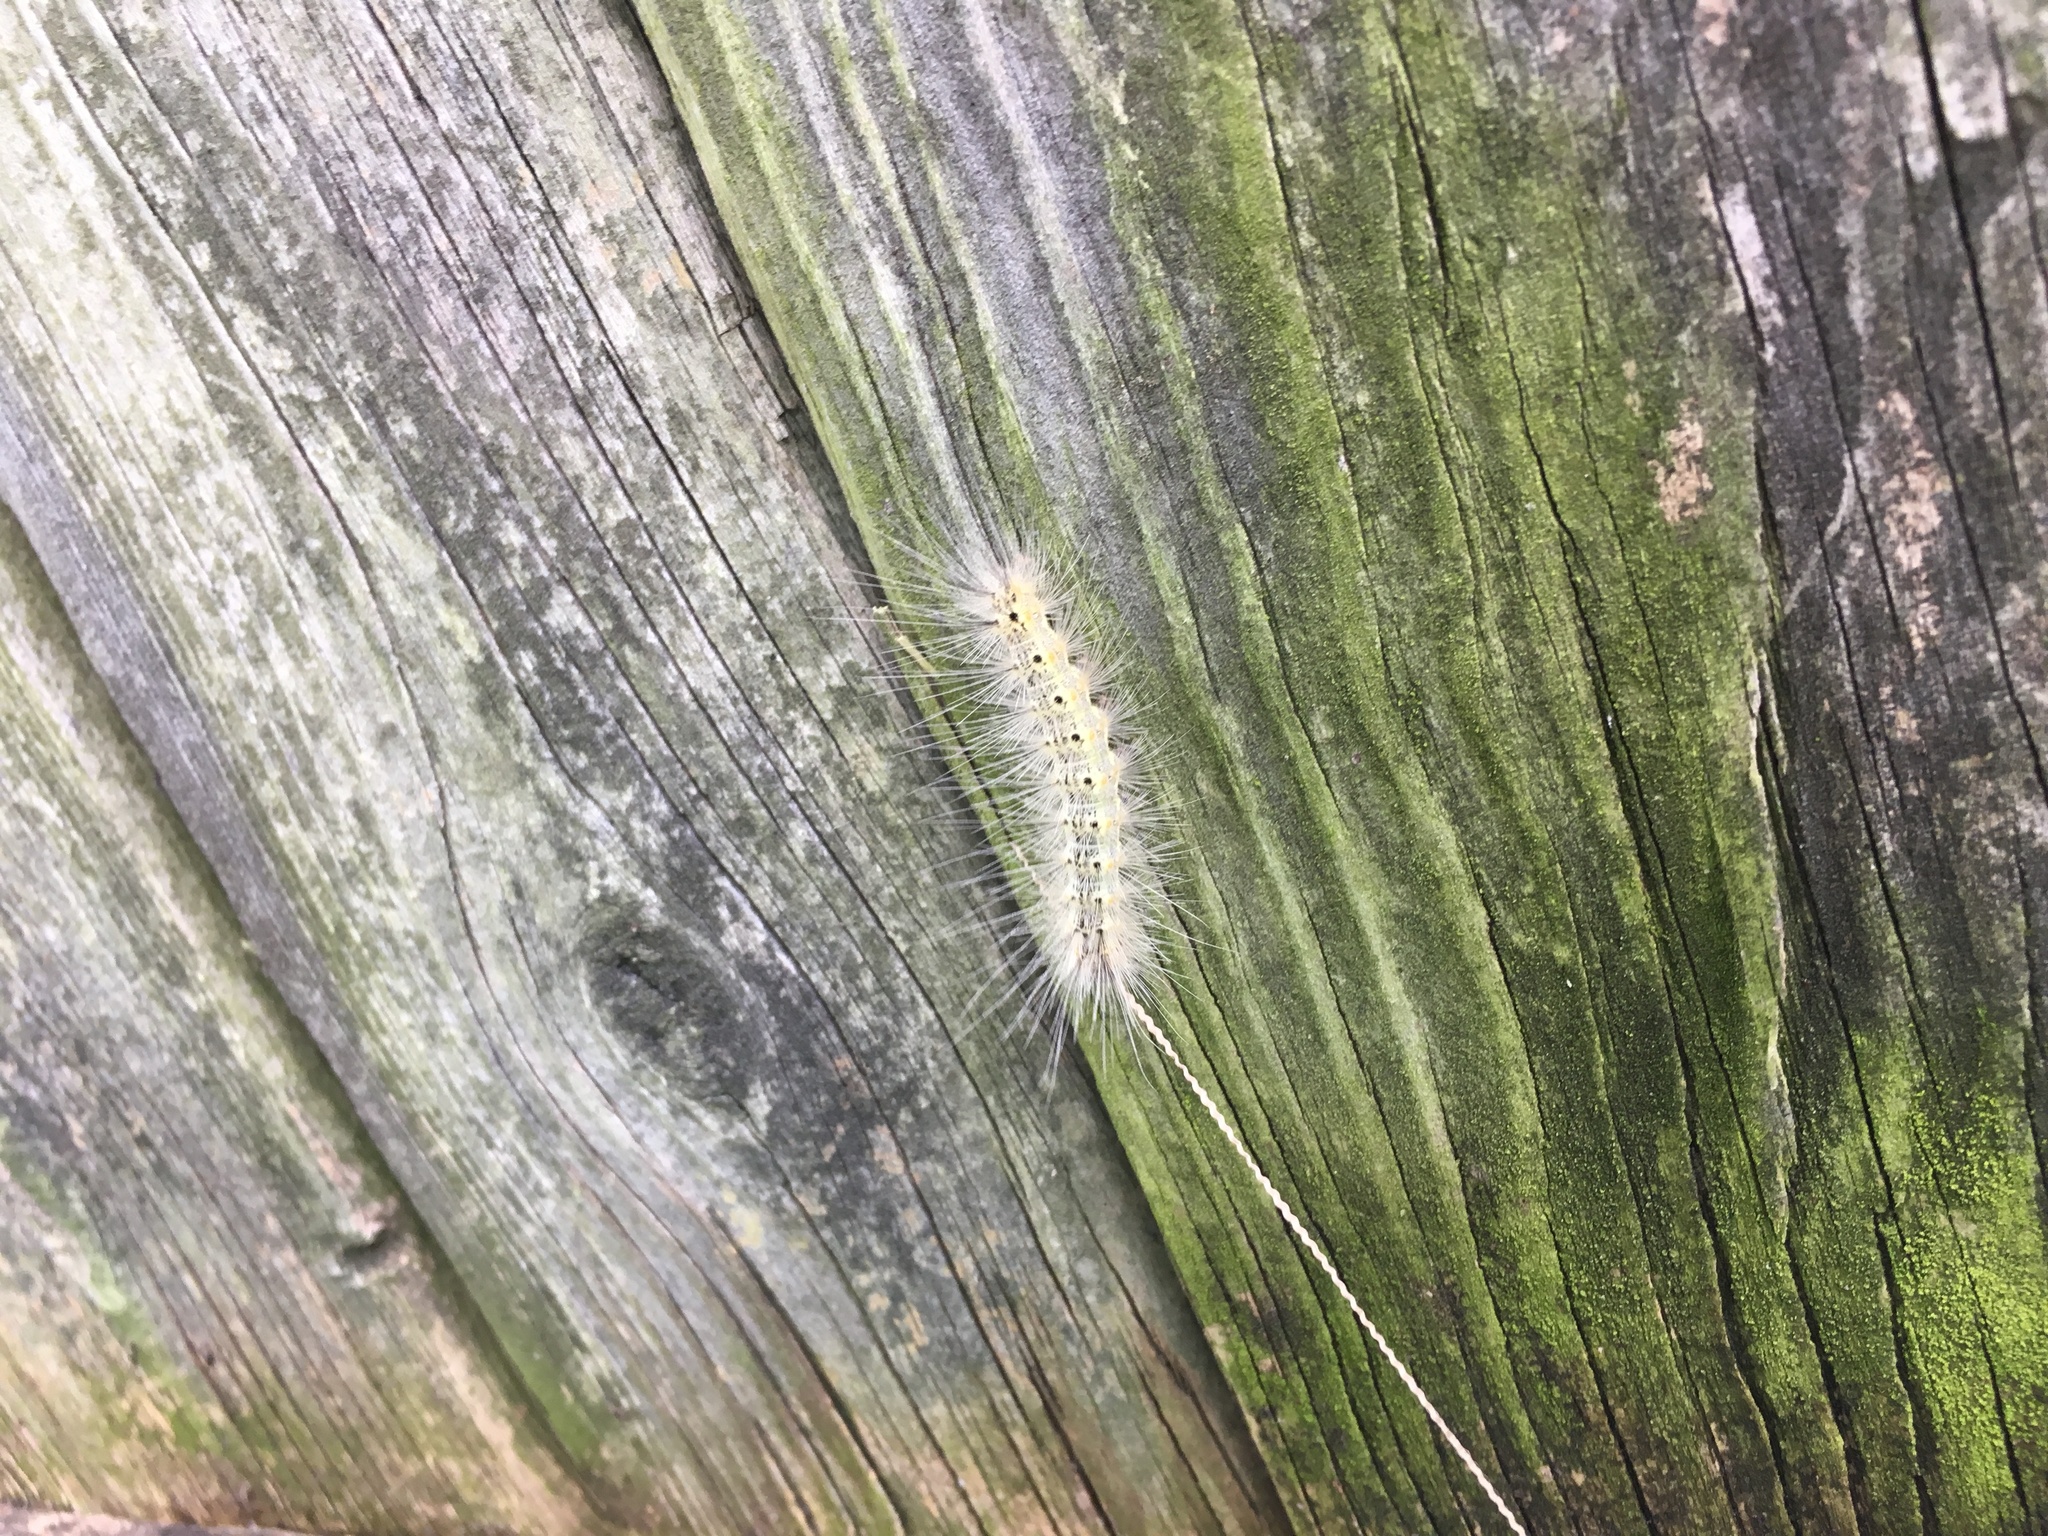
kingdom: Animalia
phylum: Arthropoda
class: Insecta
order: Lepidoptera
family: Erebidae
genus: Hyphantria
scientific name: Hyphantria cunea
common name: American white moth
